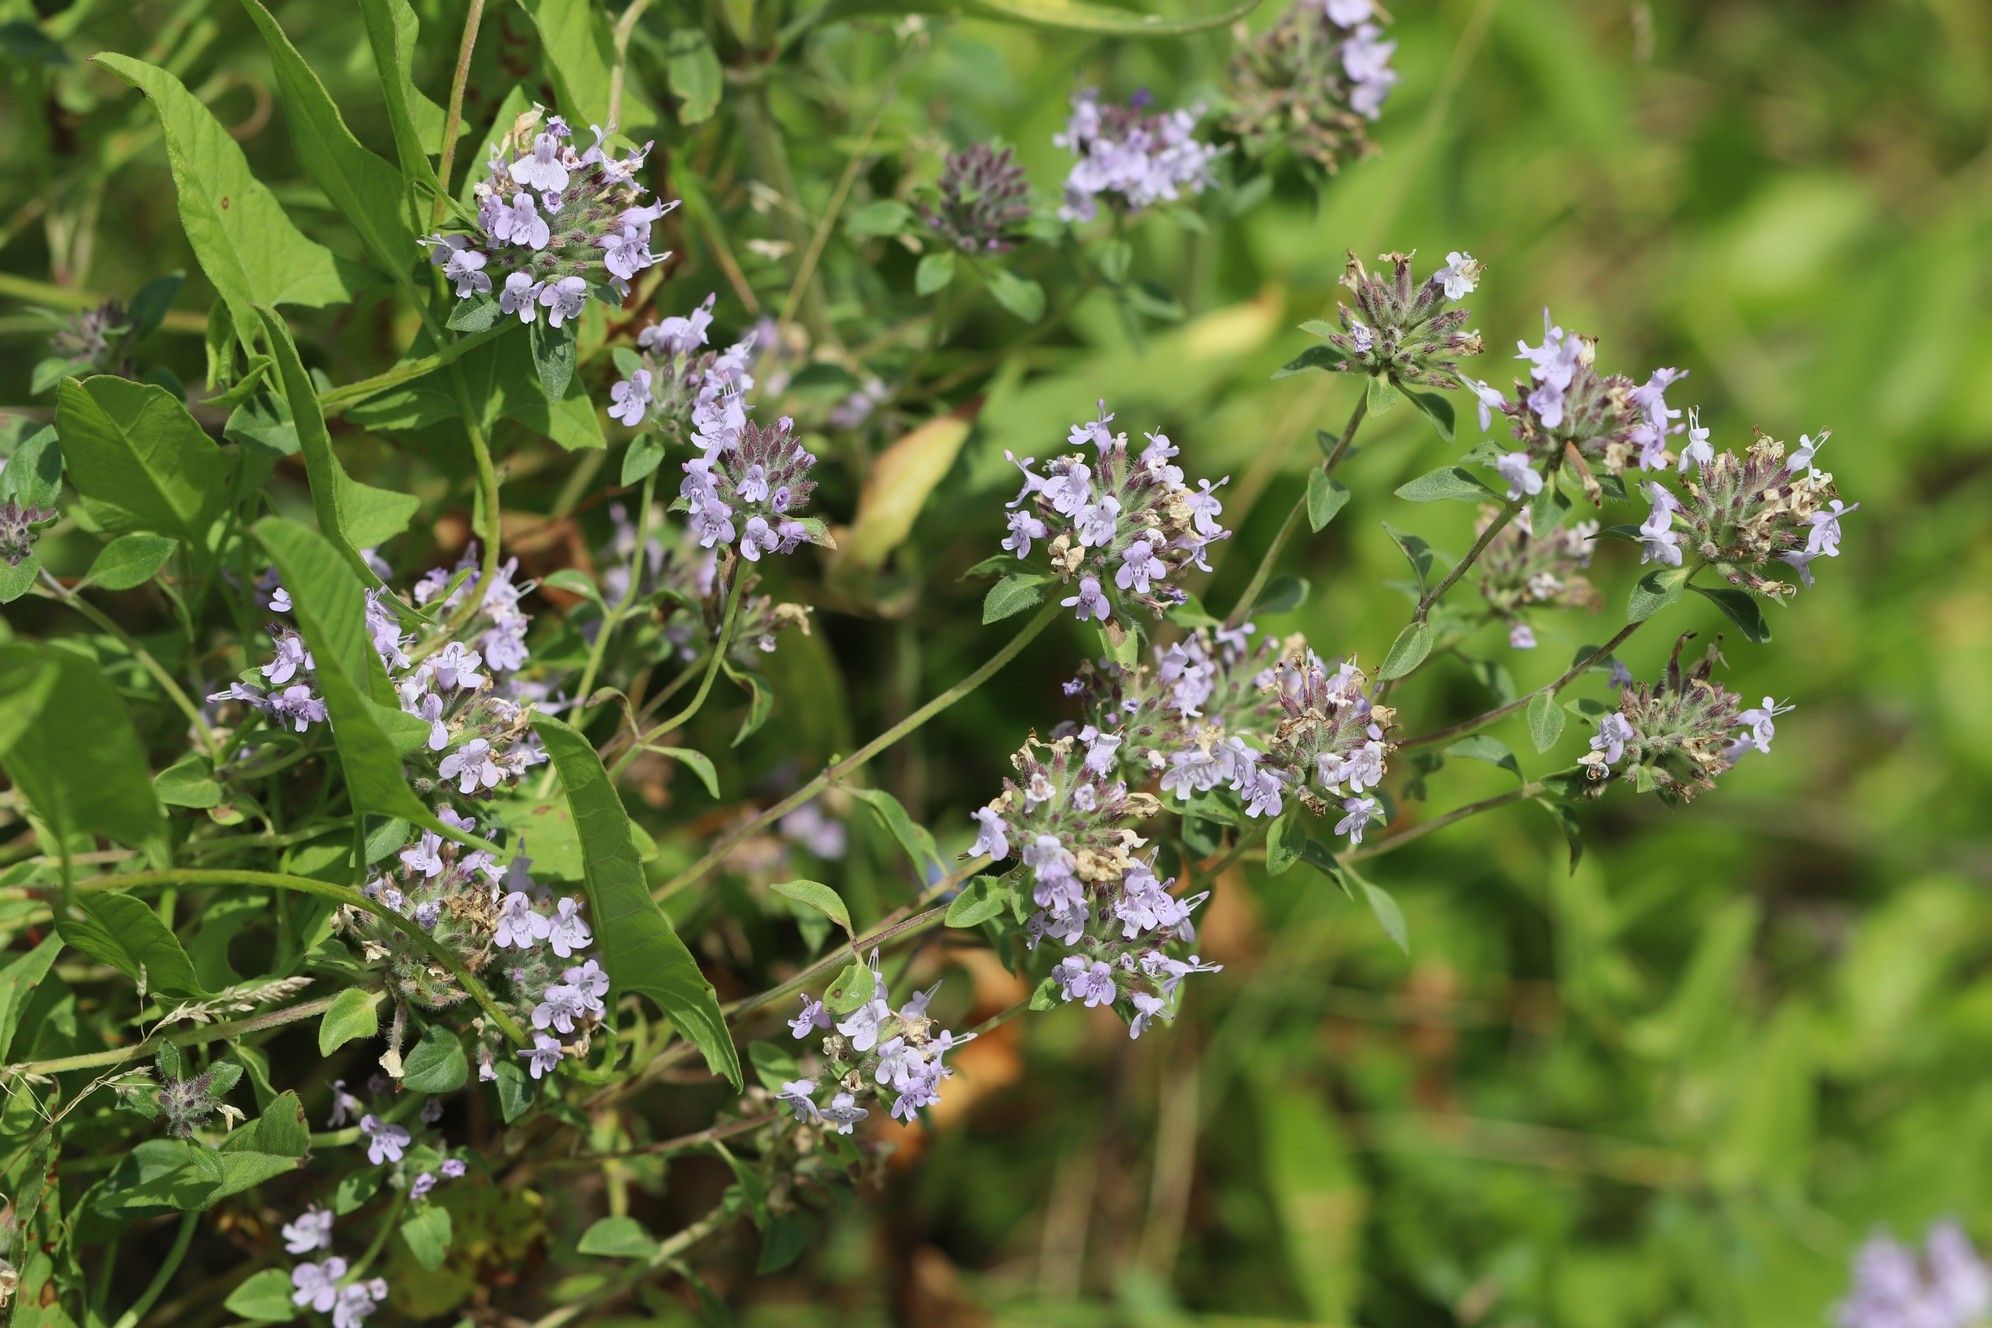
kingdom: Plantae
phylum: Tracheophyta
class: Magnoliopsida
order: Lamiales
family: Lamiaceae
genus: Ziziphora
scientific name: Ziziphora clinopodioides
